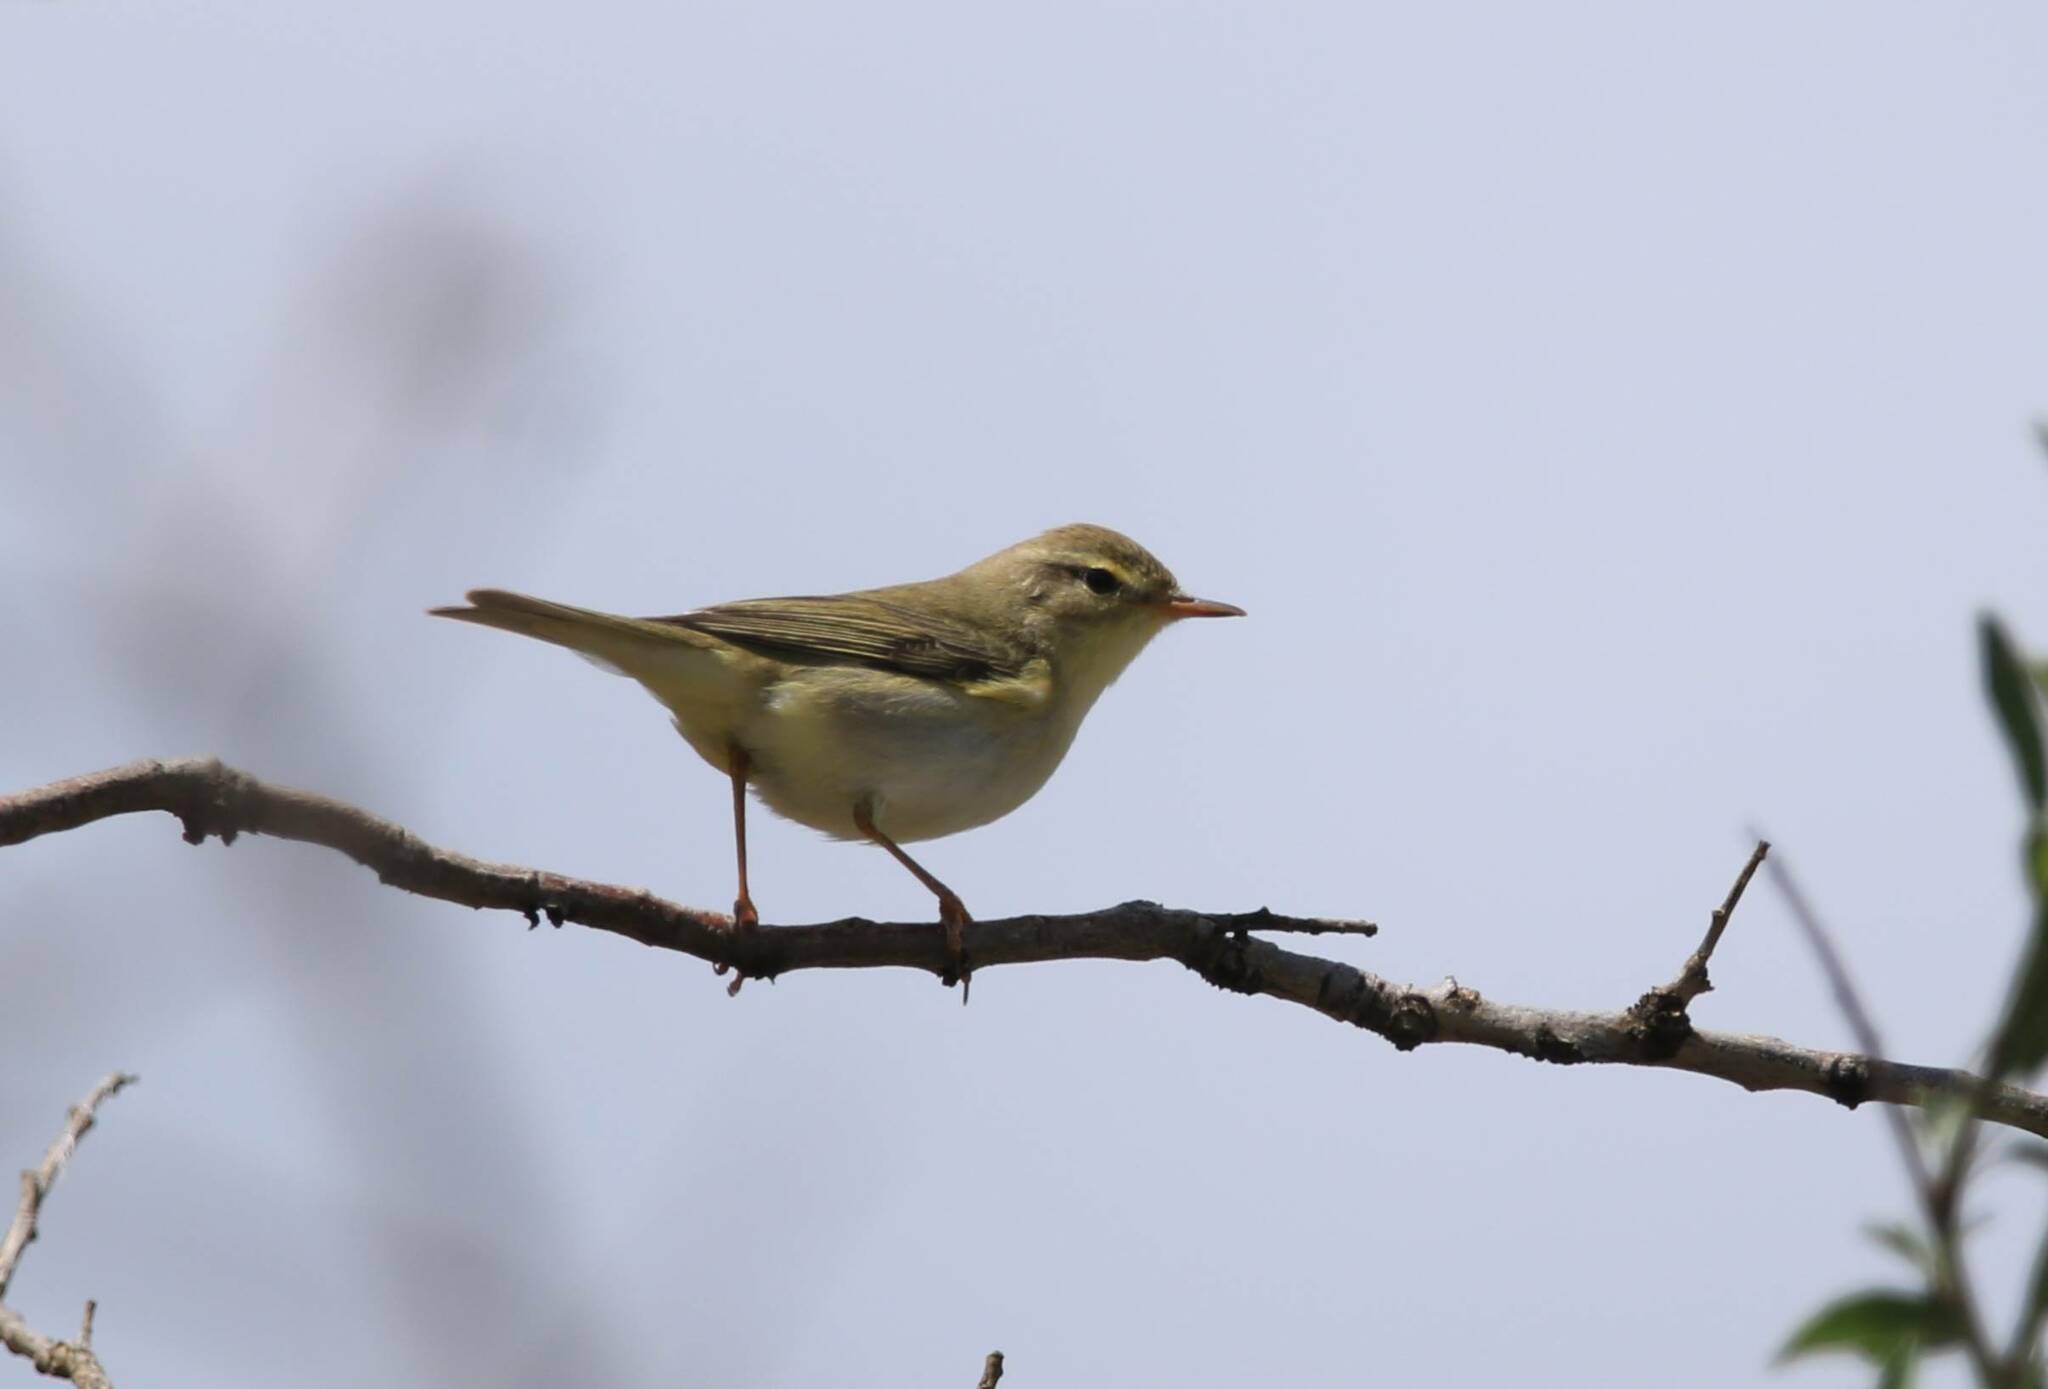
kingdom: Animalia
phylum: Chordata
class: Aves
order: Passeriformes
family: Phylloscopidae
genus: Phylloscopus
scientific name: Phylloscopus trochilus
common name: Willow warbler
